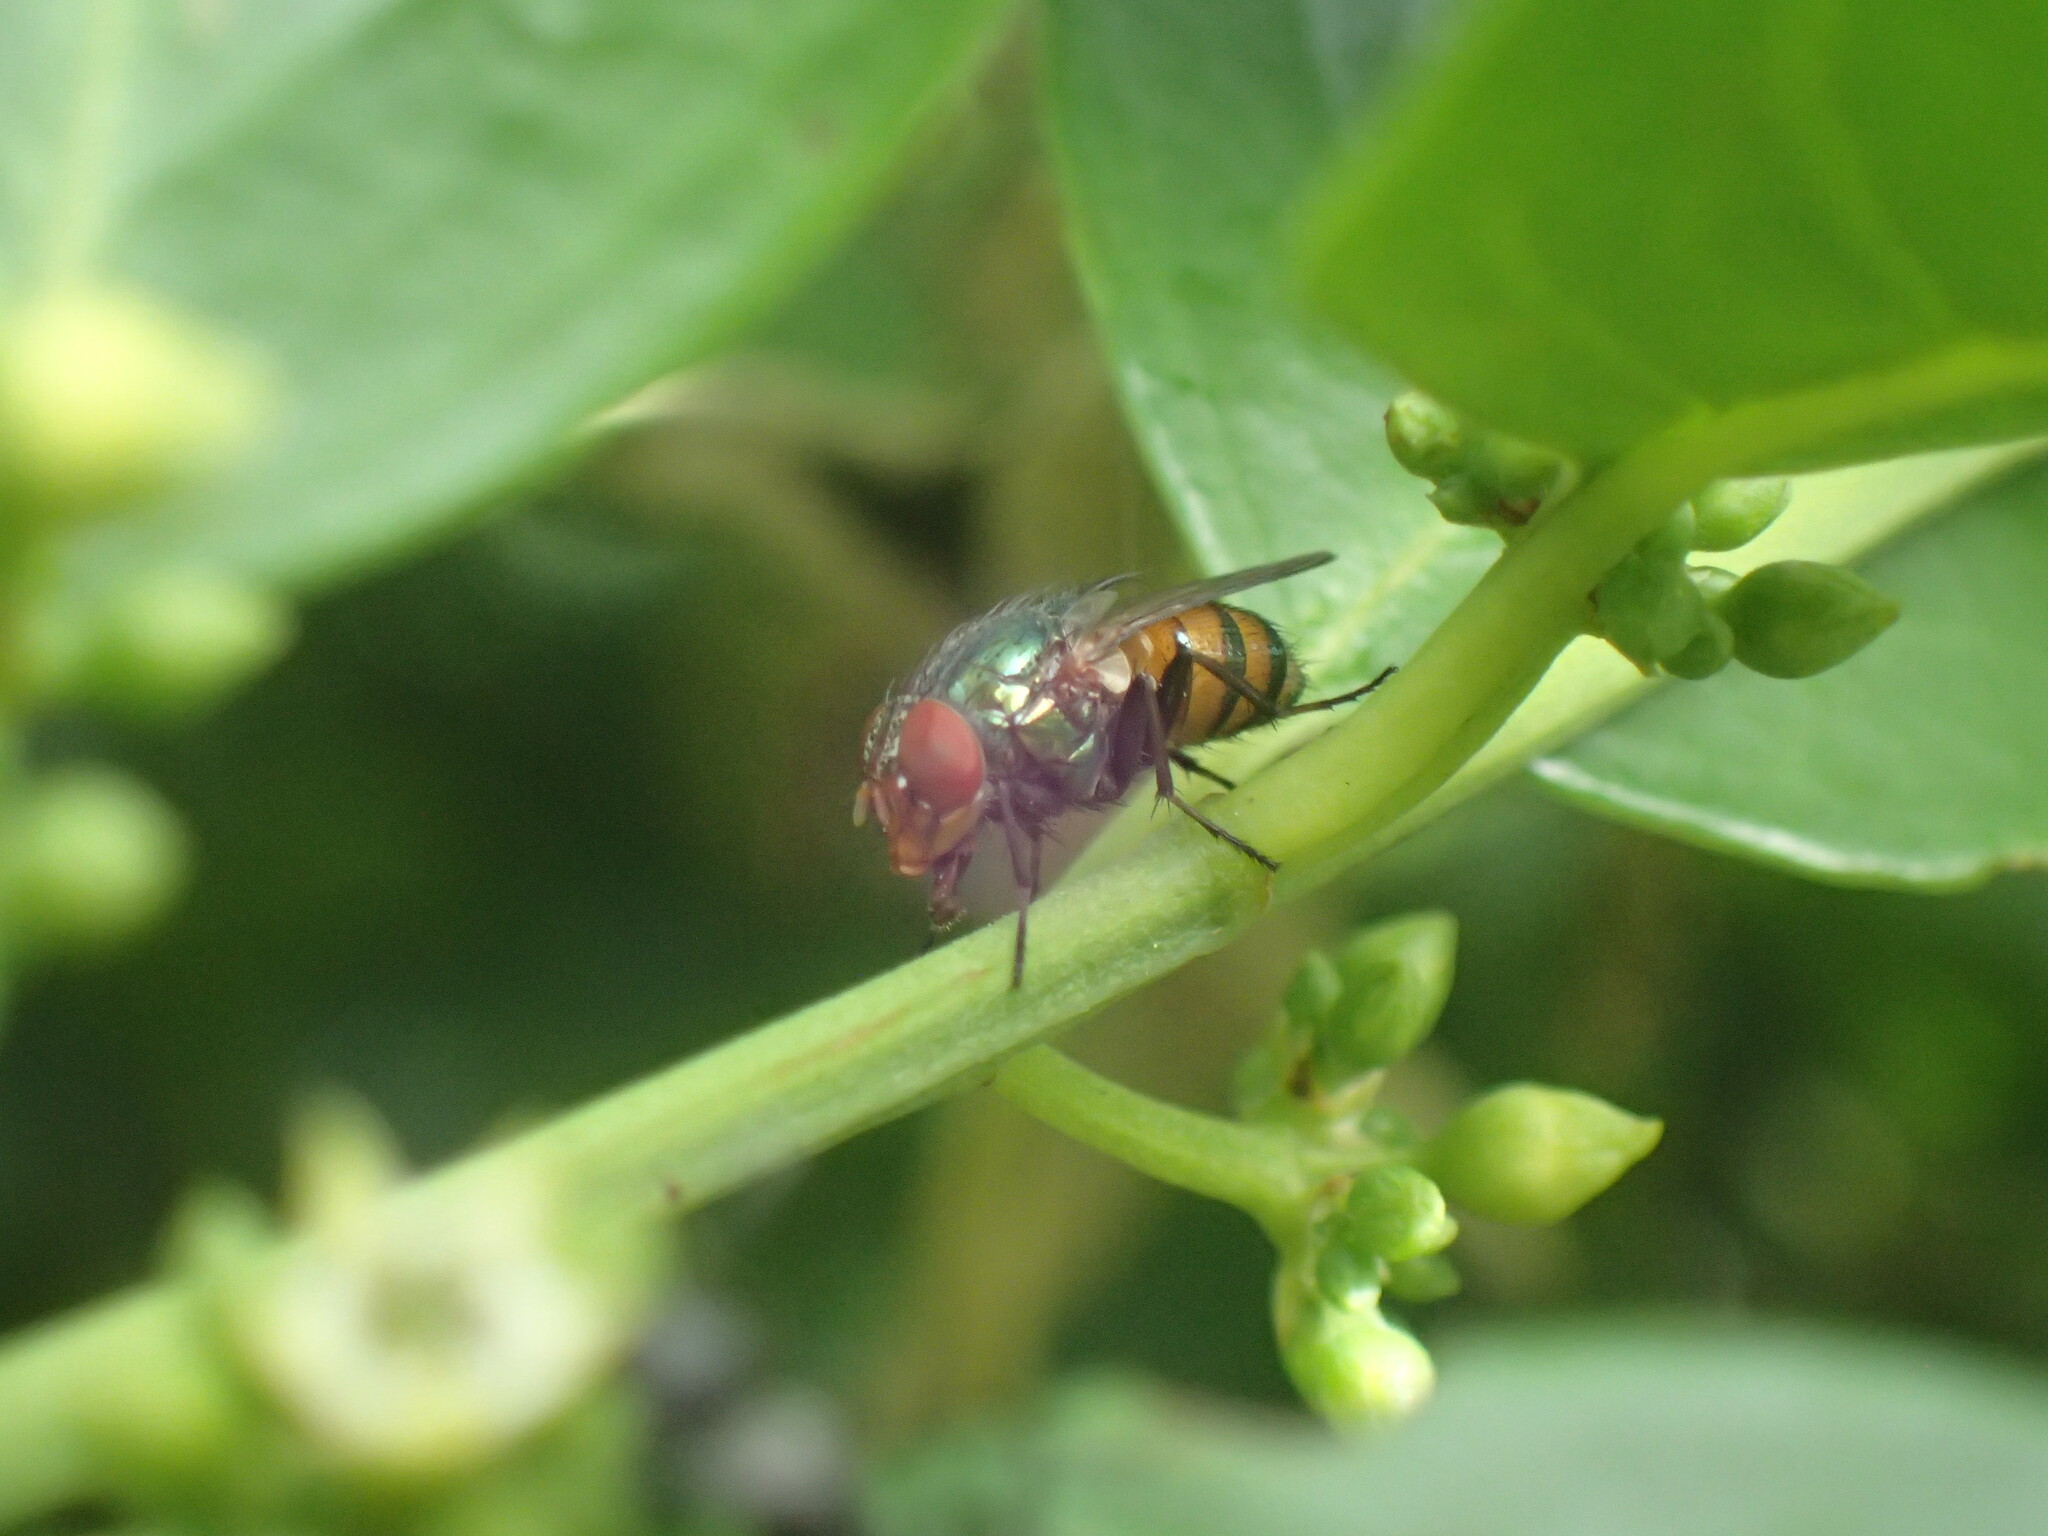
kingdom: Animalia
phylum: Arthropoda
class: Insecta
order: Diptera
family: Calliphoridae
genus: Eurhyncomyia
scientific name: Eurhyncomyia diversicolor
